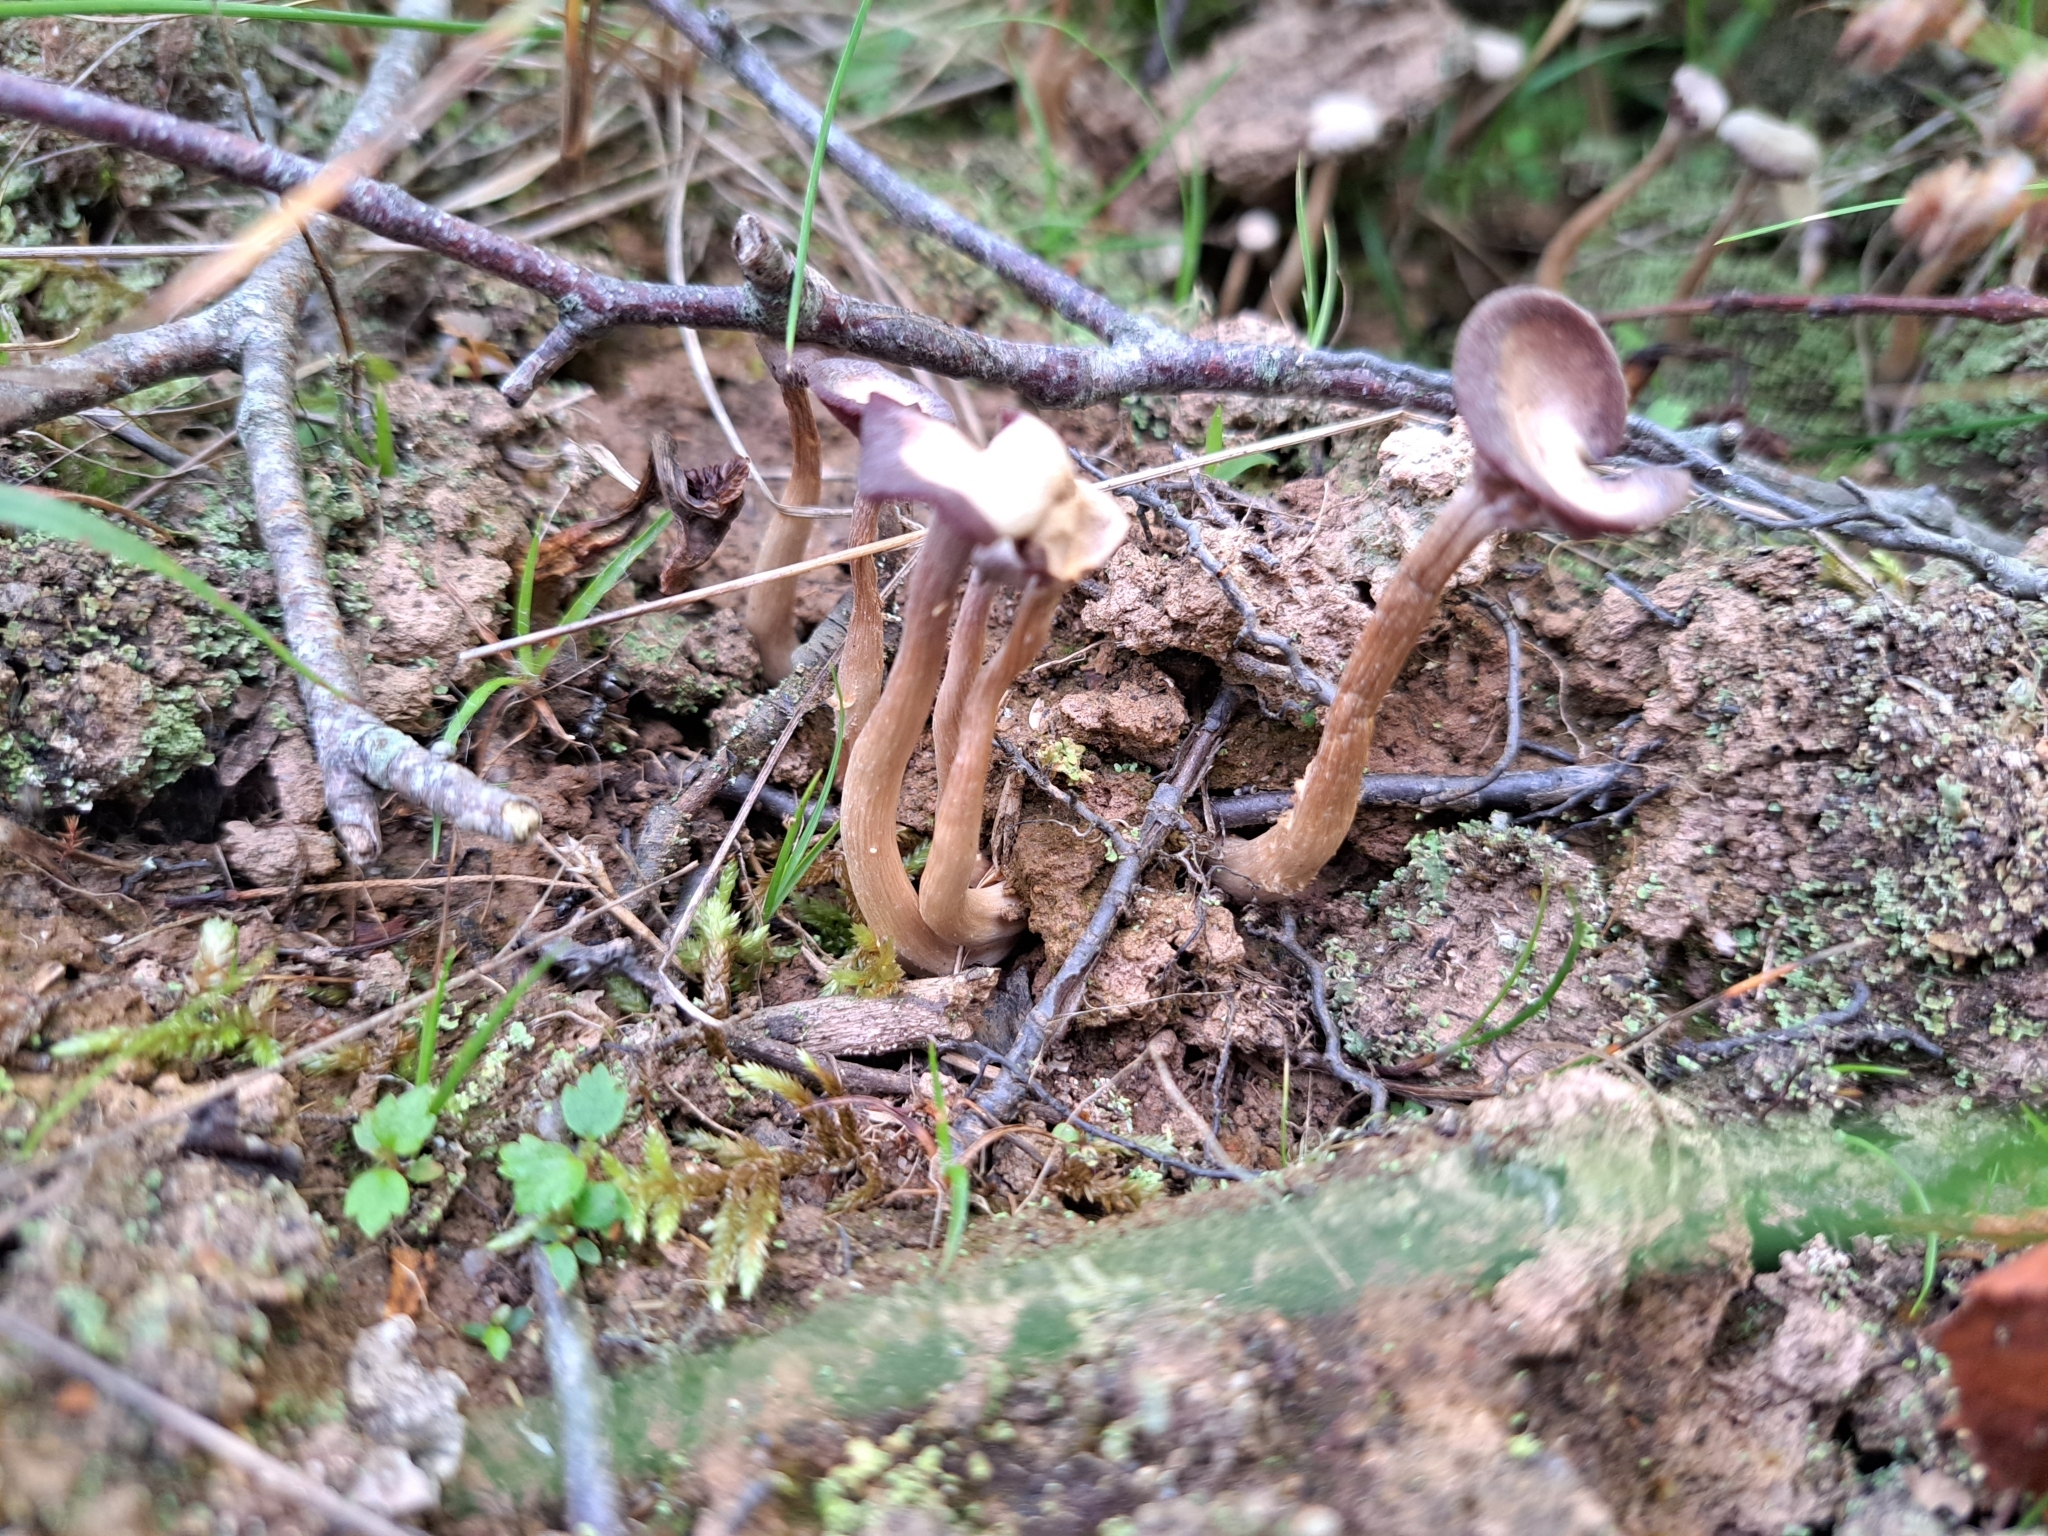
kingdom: Fungi
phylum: Basidiomycota
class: Agaricomycetes
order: Agaricales
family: Hydnangiaceae
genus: Laccaria
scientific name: Laccaria ochropurpurea
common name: Purple laccaria
